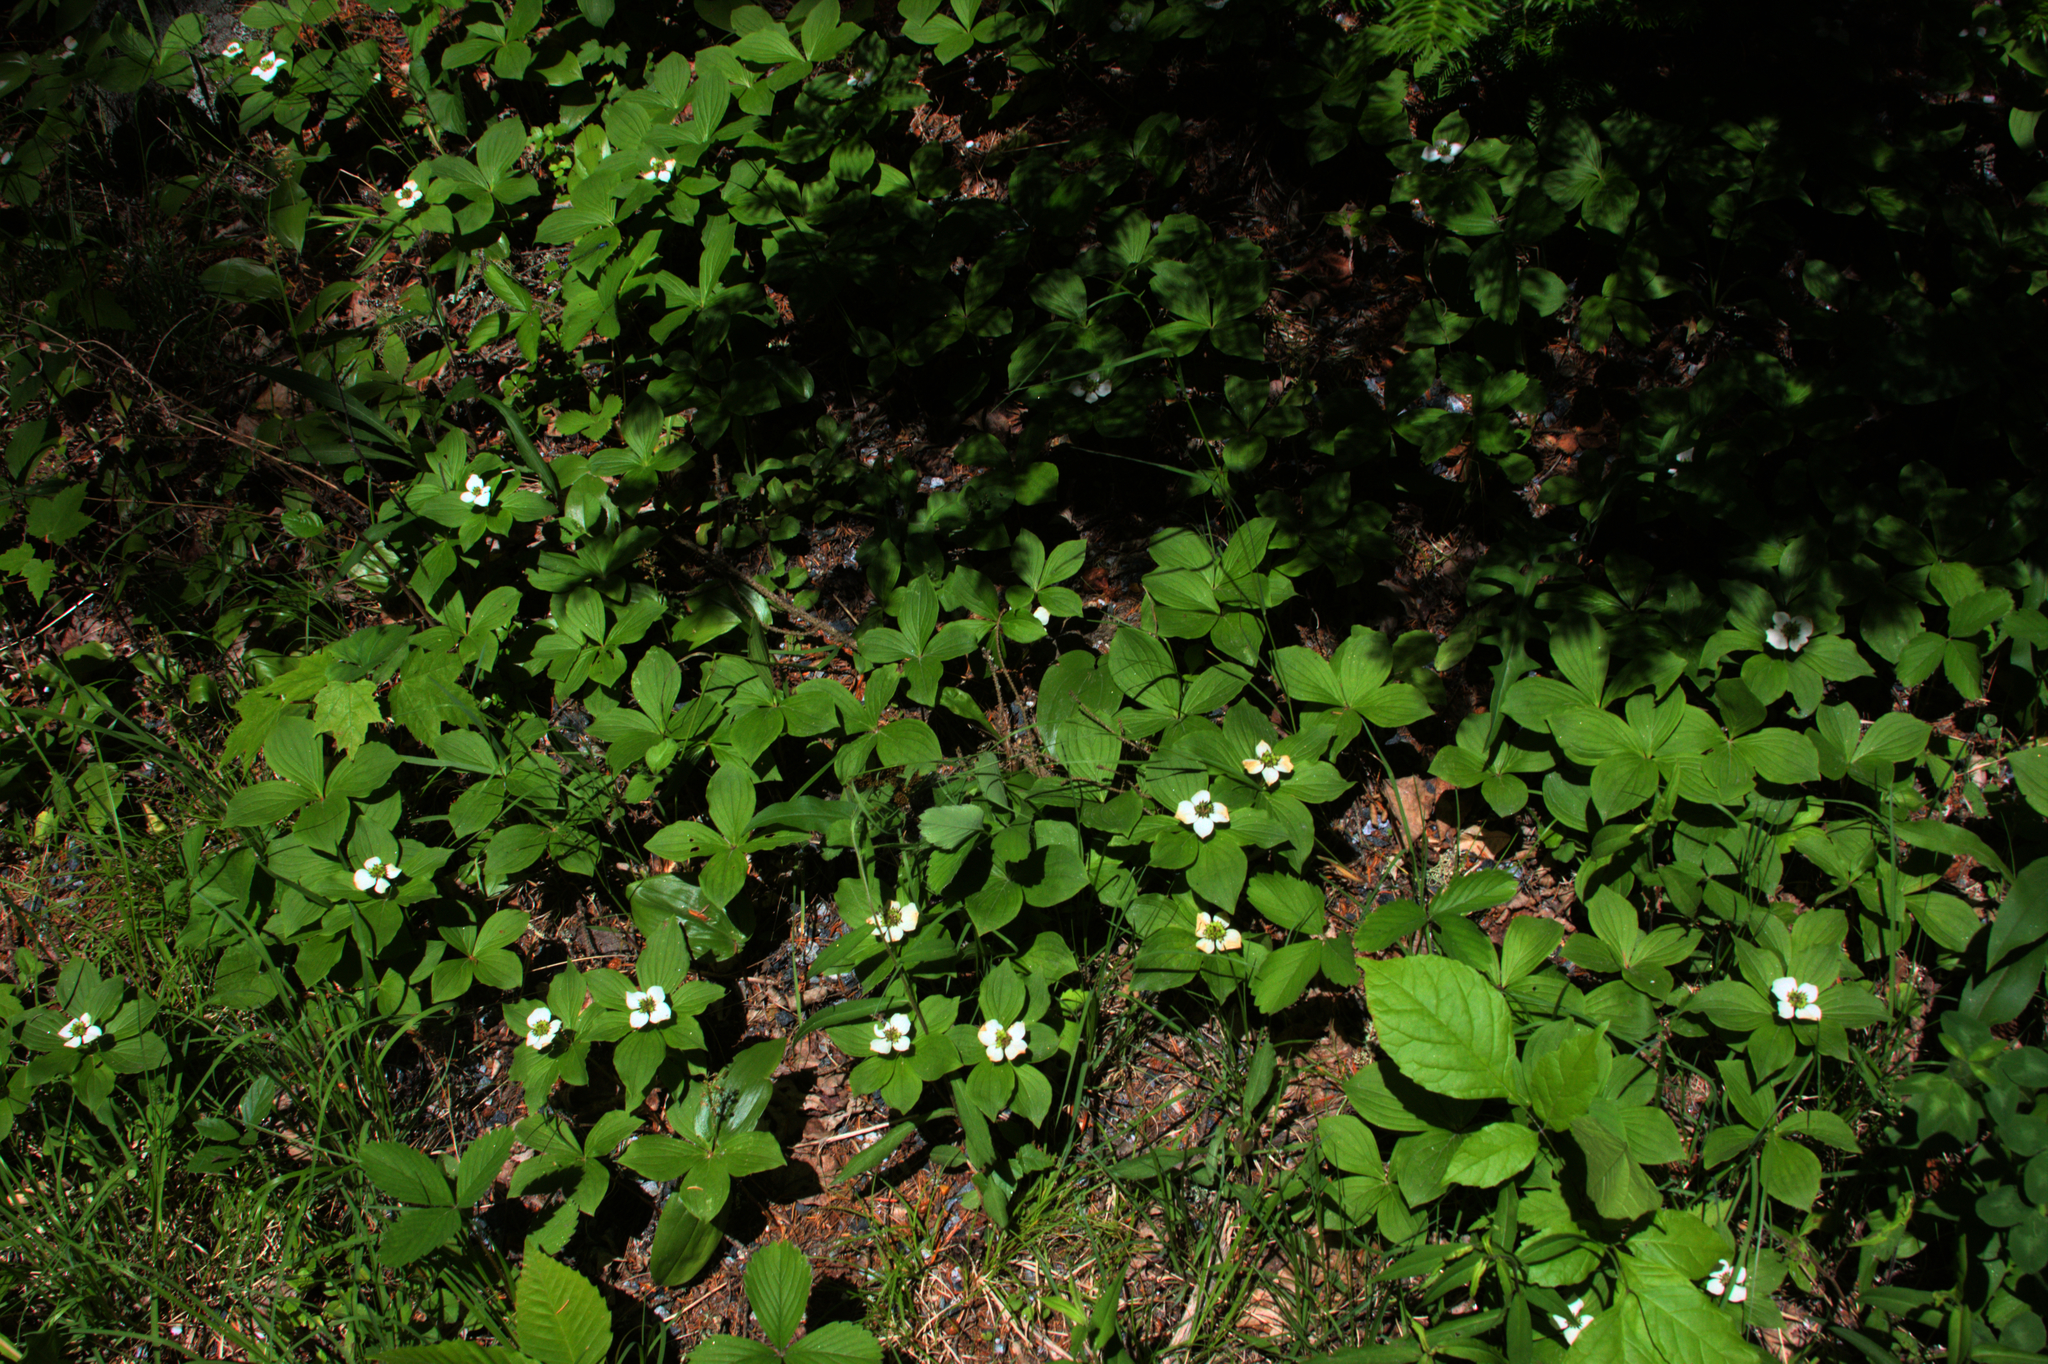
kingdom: Plantae
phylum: Tracheophyta
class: Magnoliopsida
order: Cornales
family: Cornaceae
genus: Cornus
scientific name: Cornus canadensis
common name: Creeping dogwood
